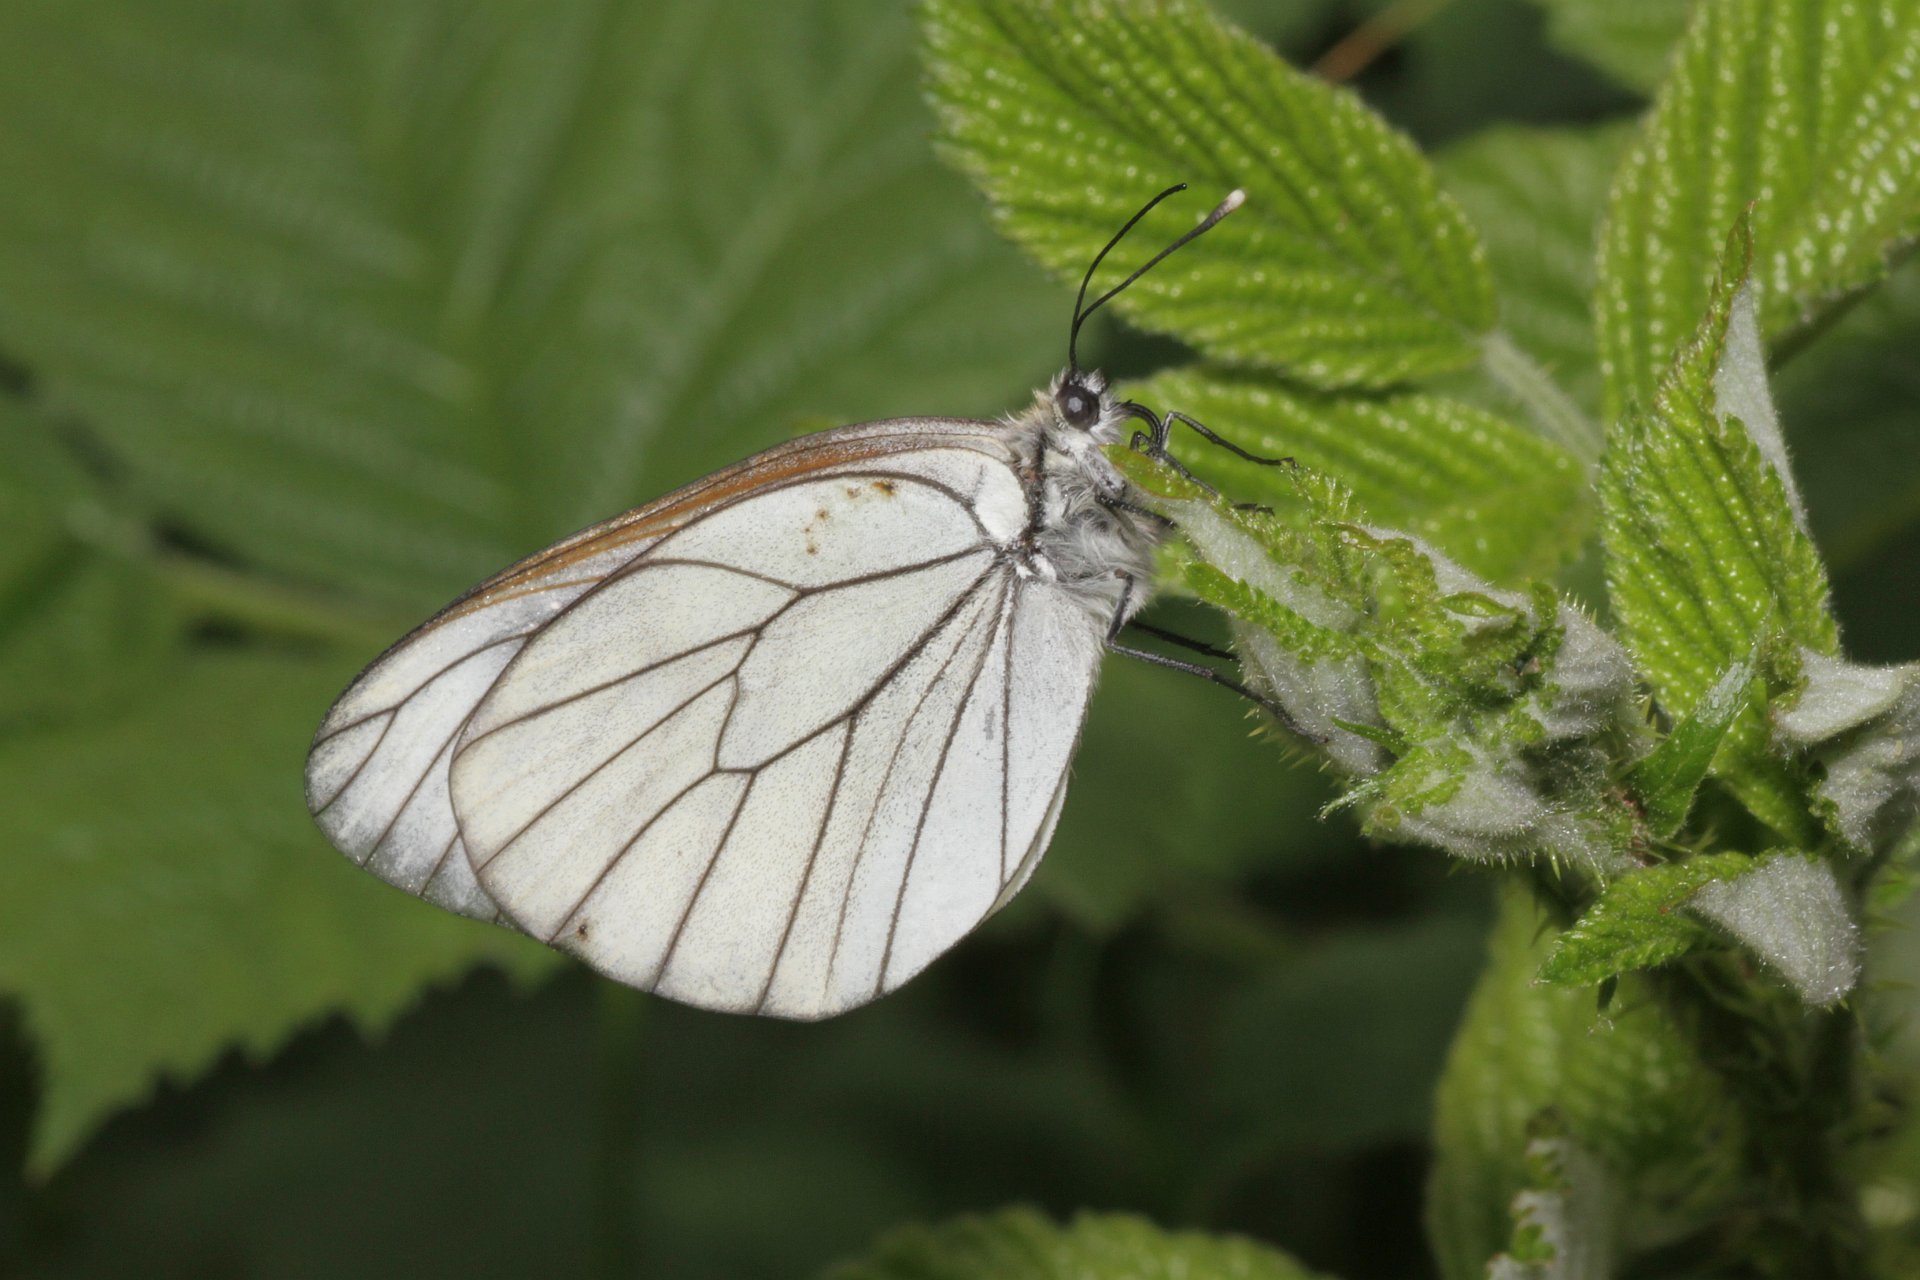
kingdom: Animalia
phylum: Arthropoda
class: Insecta
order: Lepidoptera
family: Pieridae
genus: Aporia
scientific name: Aporia crataegi
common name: Black-veined white
